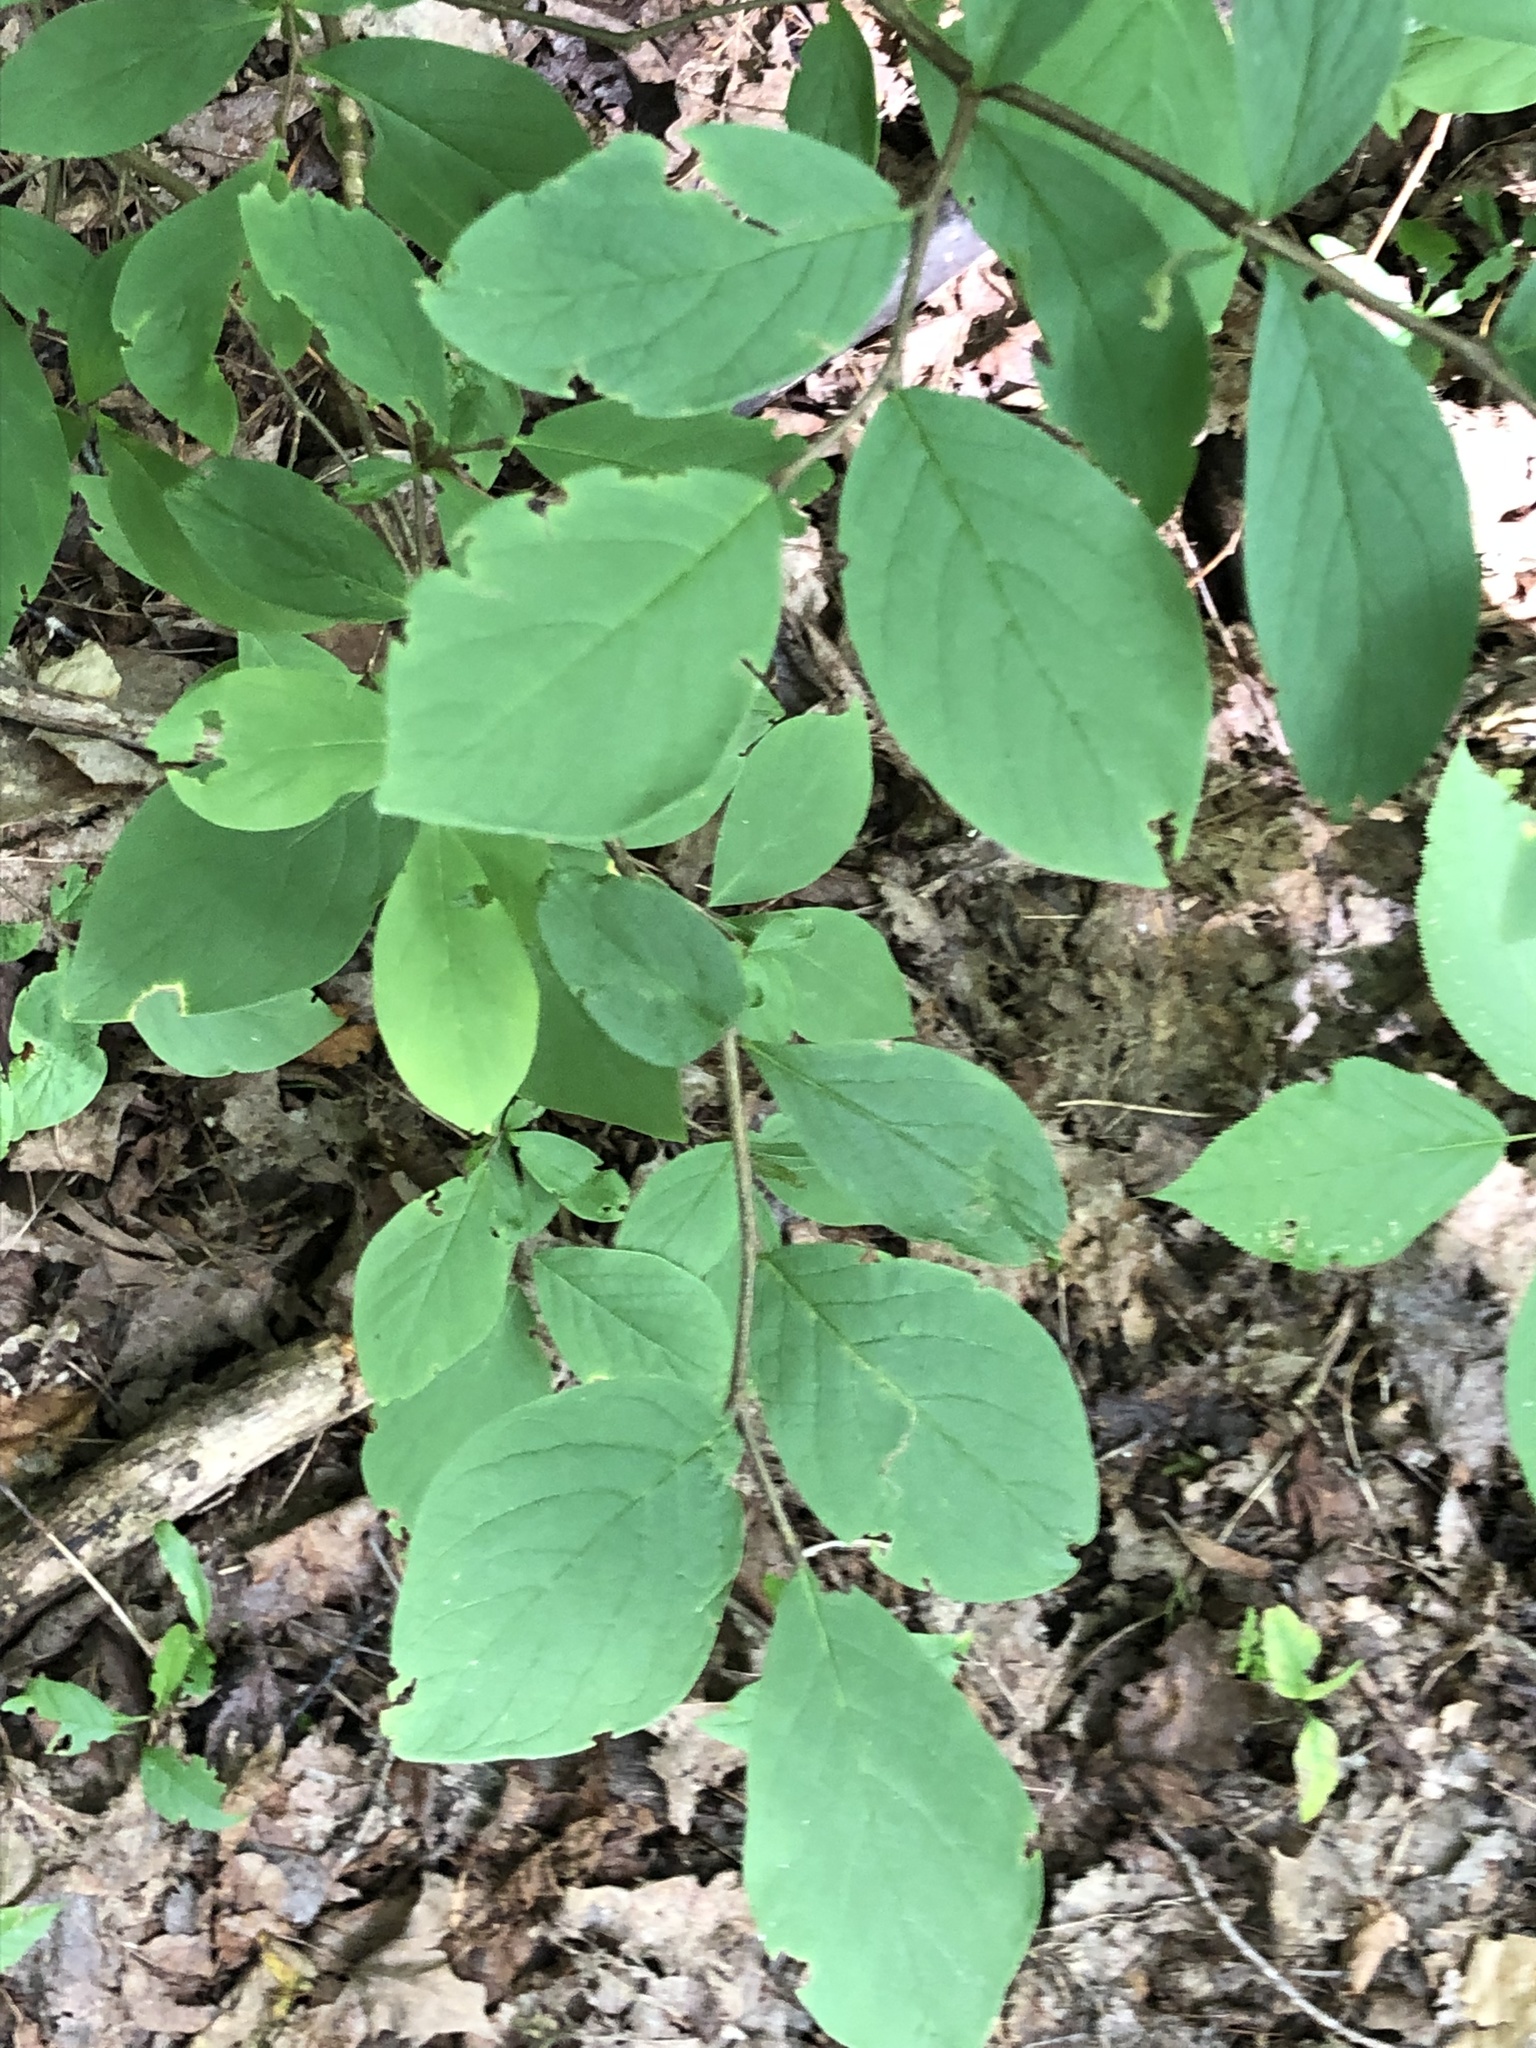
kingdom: Plantae
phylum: Tracheophyta
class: Magnoliopsida
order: Malvales
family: Thymelaeaceae
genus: Dirca
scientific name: Dirca palustris
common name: Leatherwood
